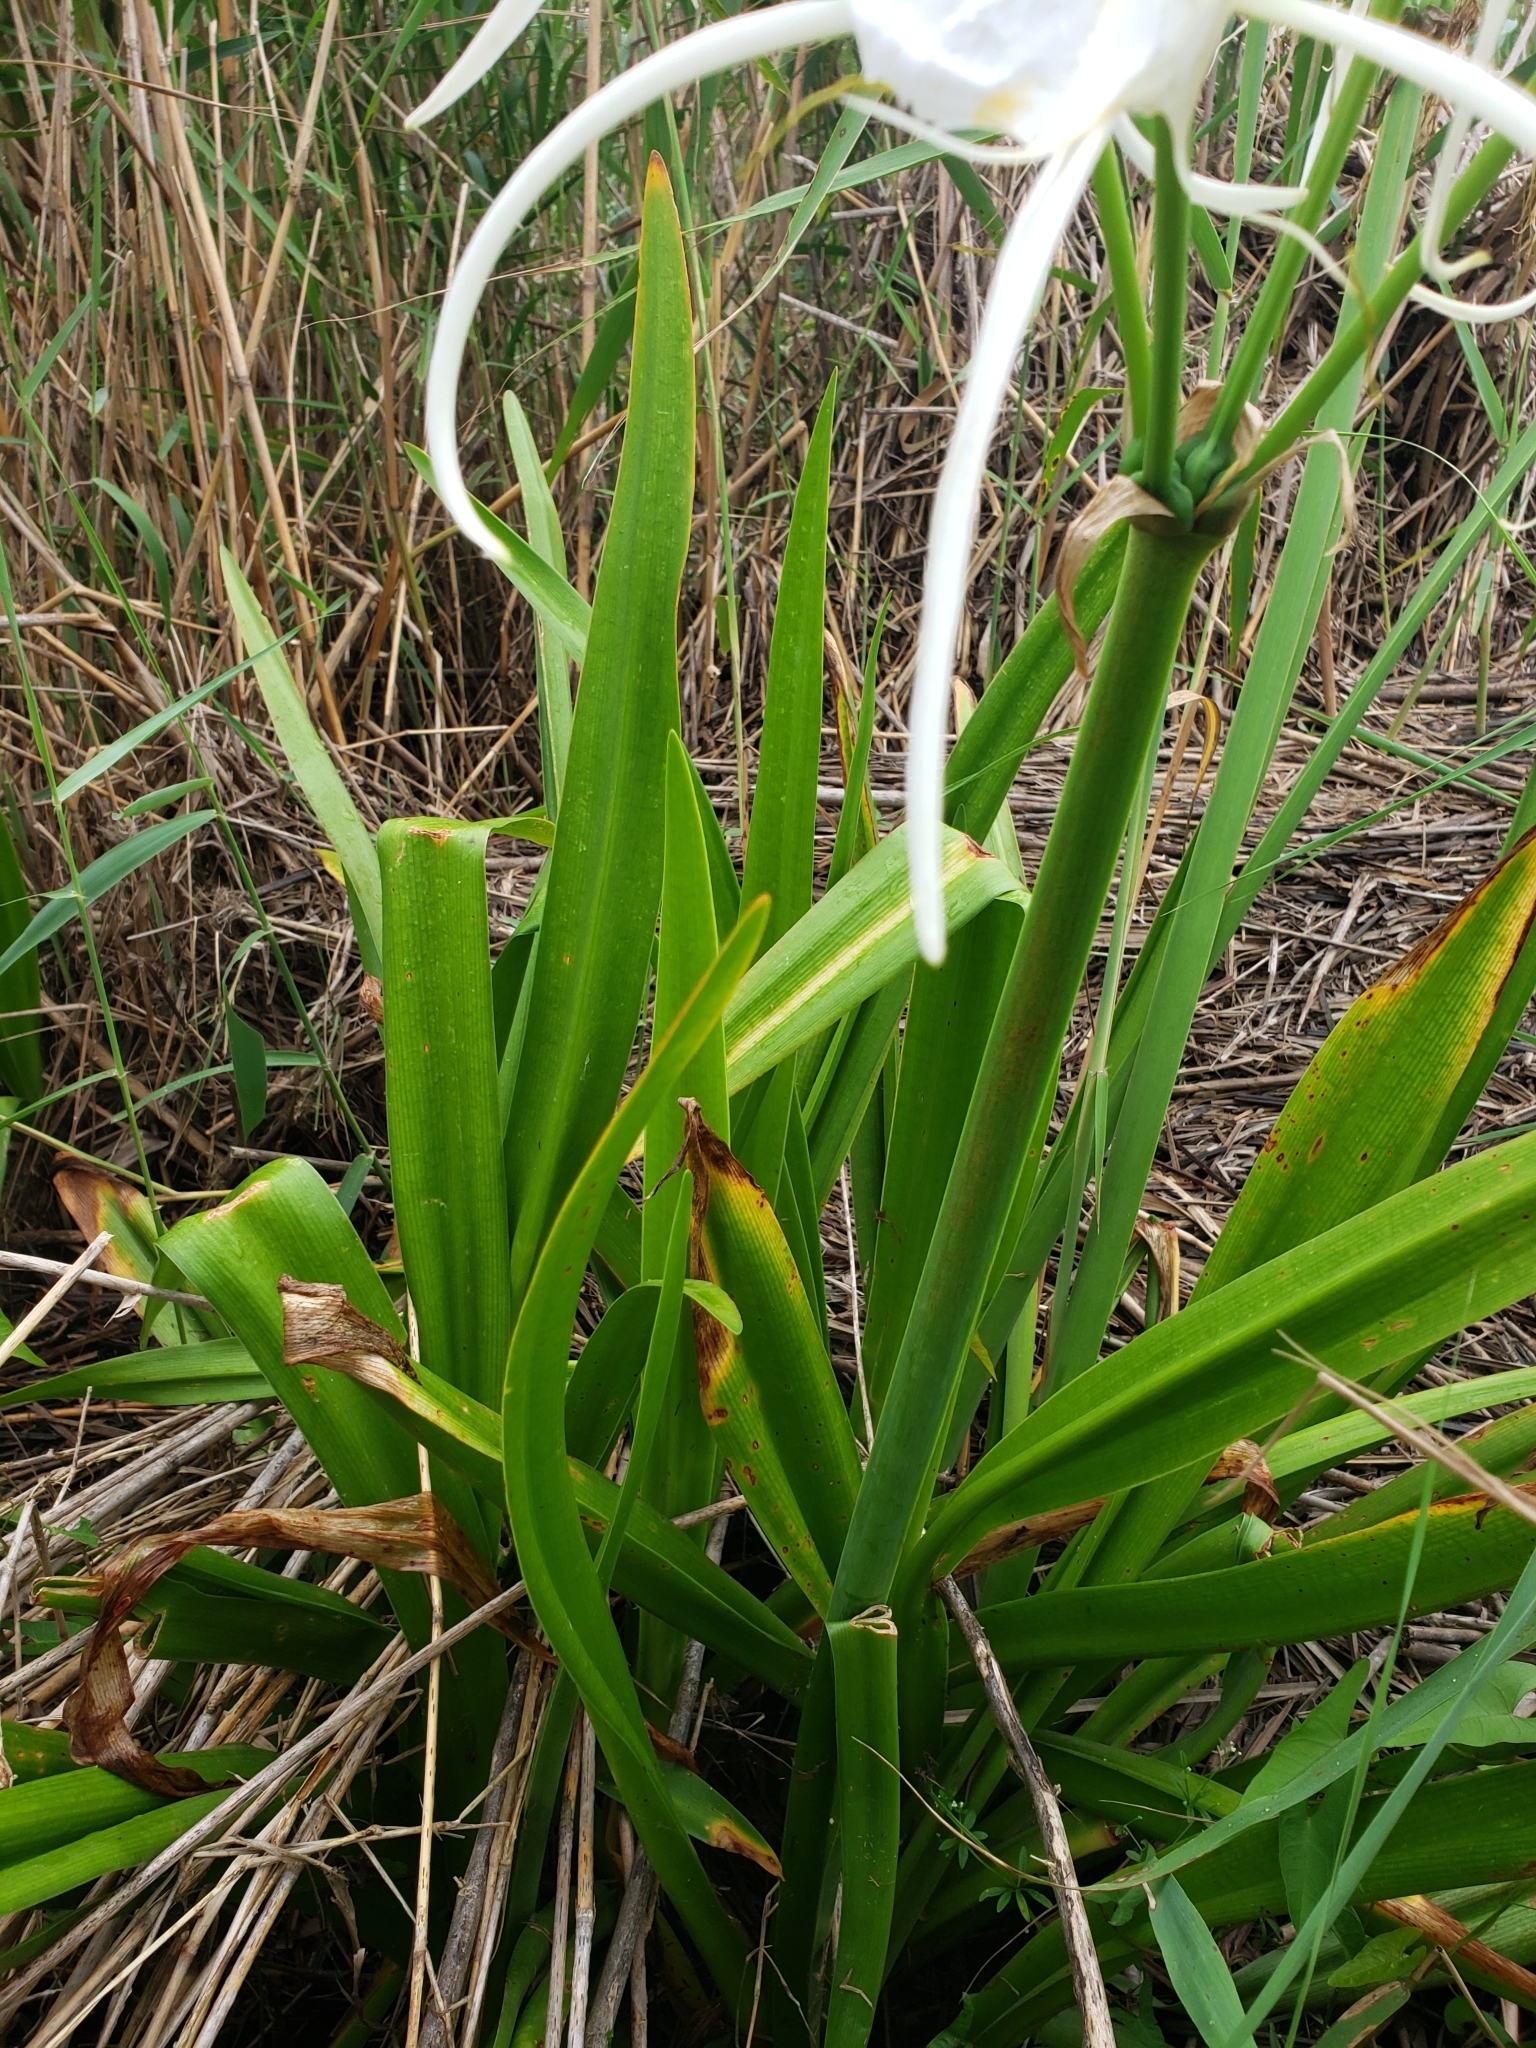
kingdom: Plantae
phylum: Tracheophyta
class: Liliopsida
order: Asparagales
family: Amaryllidaceae
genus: Hymenocallis
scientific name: Hymenocallis liriosme
